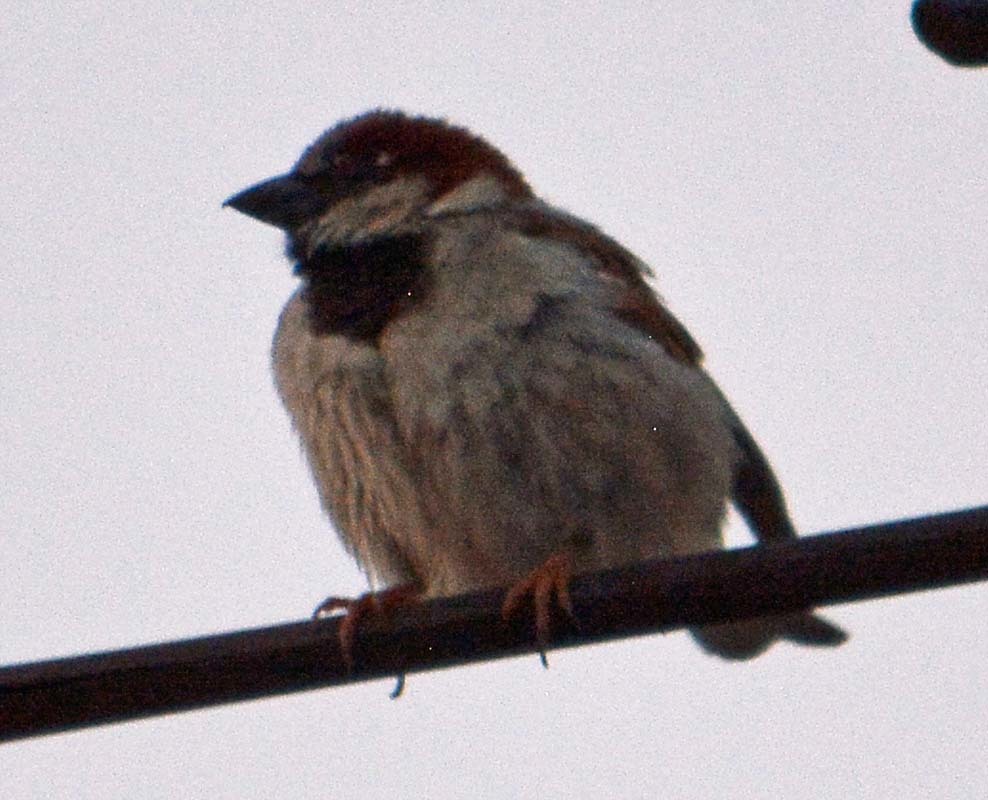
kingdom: Animalia
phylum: Chordata
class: Aves
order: Passeriformes
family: Passeridae
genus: Passer
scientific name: Passer domesticus
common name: House sparrow
